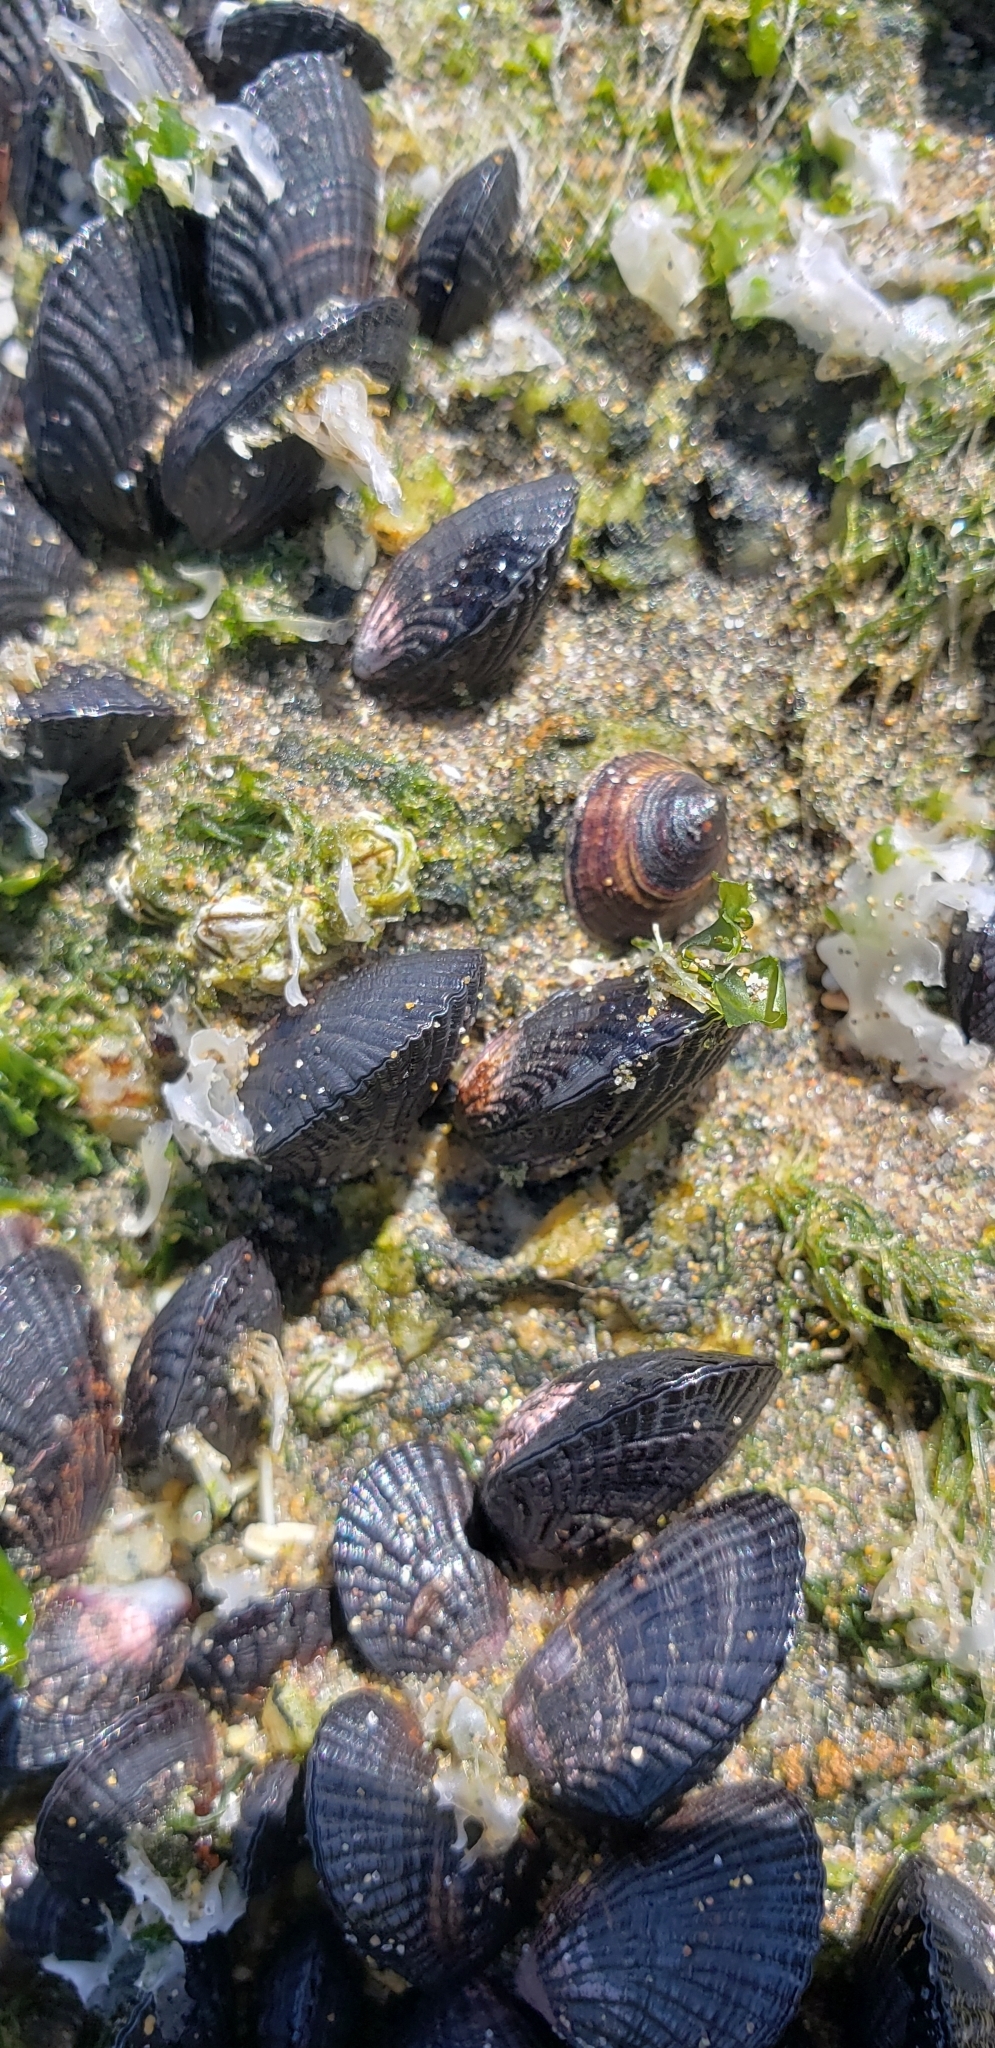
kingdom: Animalia
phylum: Mollusca
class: Gastropoda
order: Siphonariida
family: Siphonariidae
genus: Siphonaria
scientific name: Siphonaria lessonii
